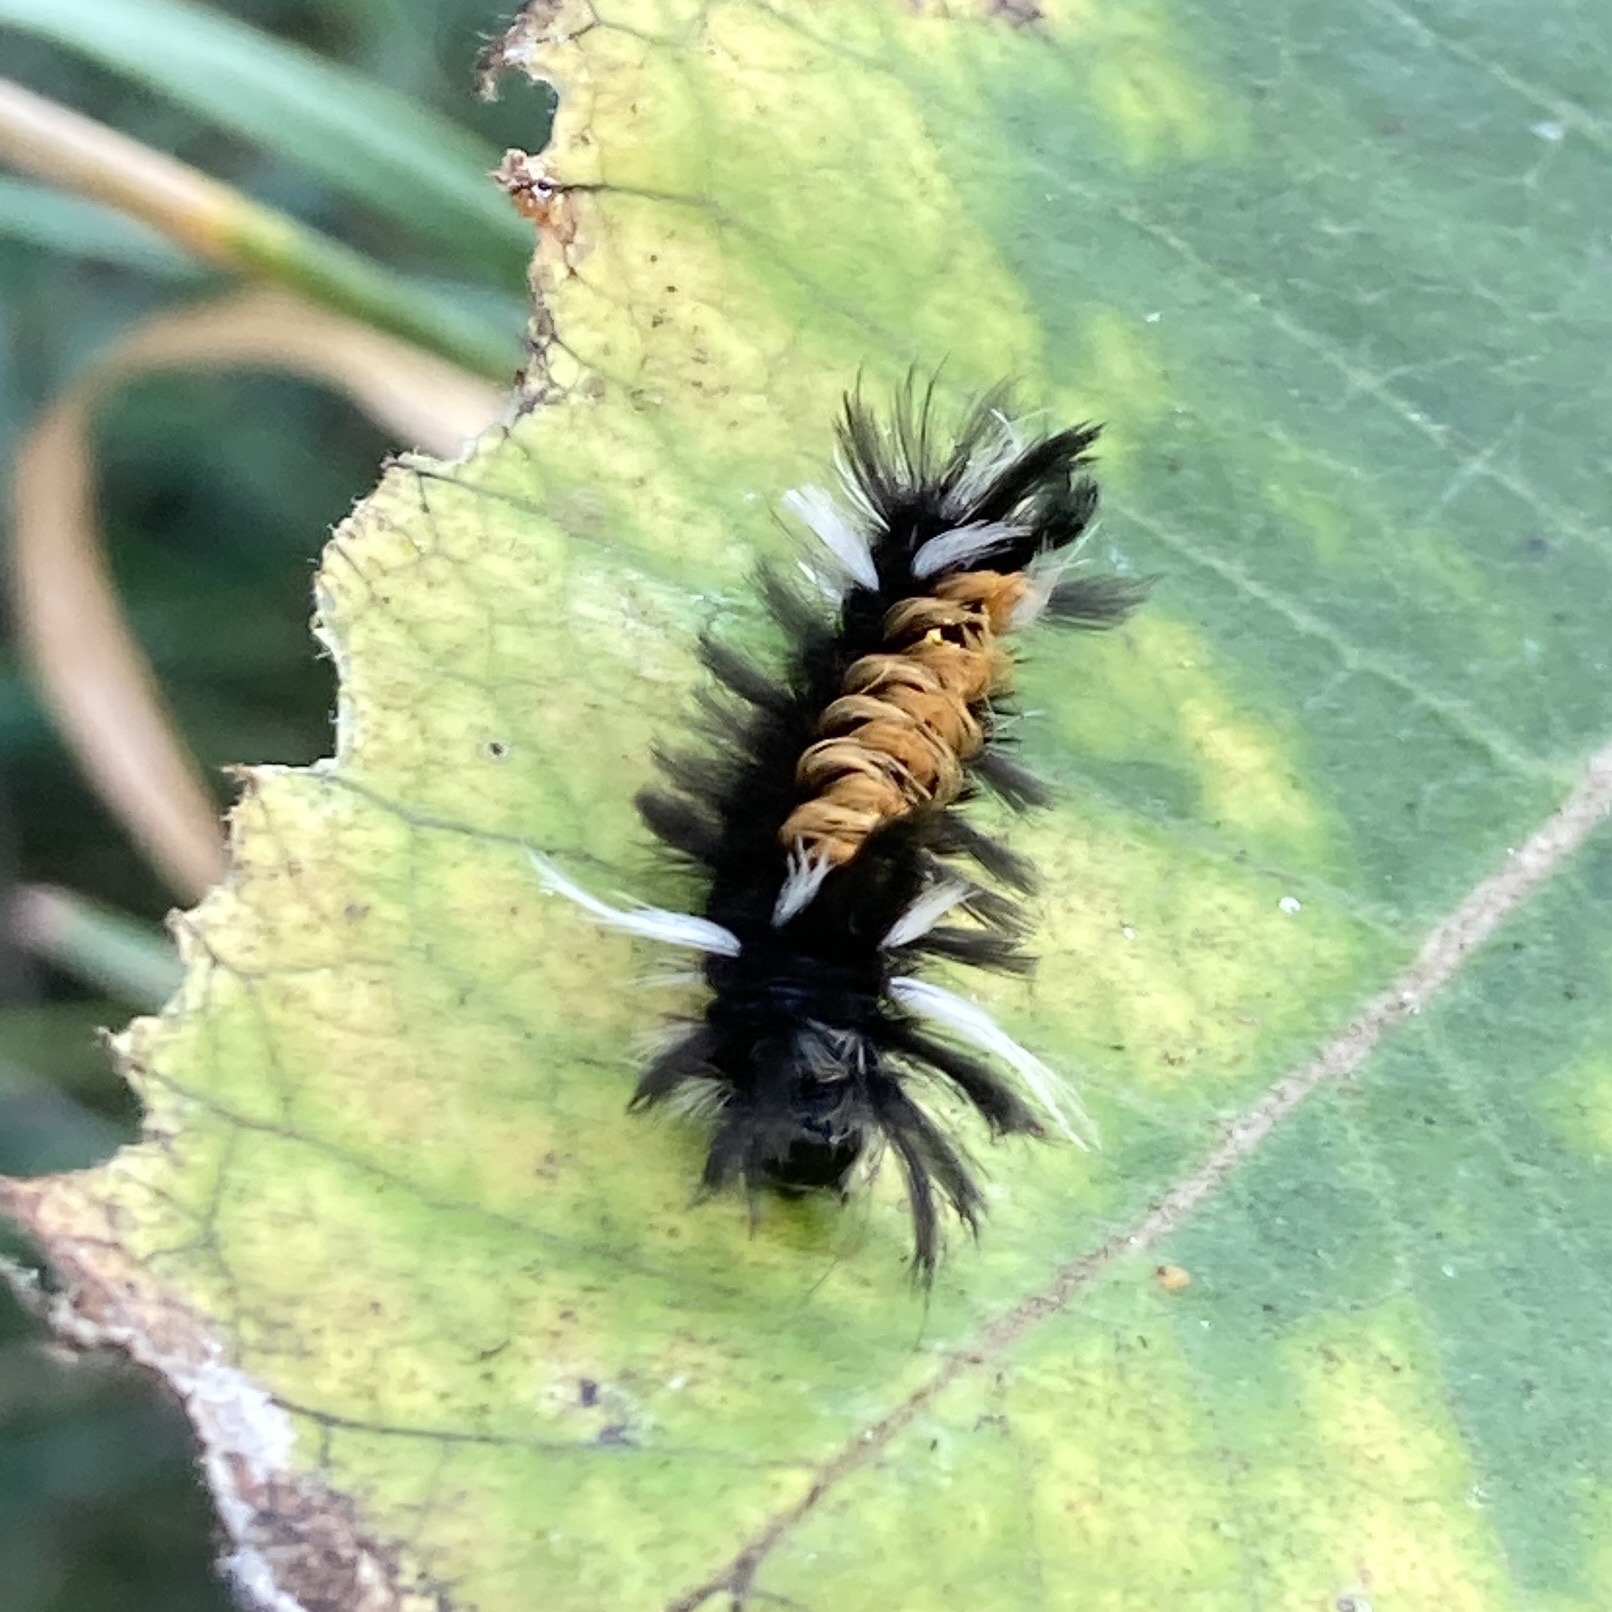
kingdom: Animalia
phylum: Arthropoda
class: Insecta
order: Lepidoptera
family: Erebidae
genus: Euchaetes
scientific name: Euchaetes egle
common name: Milkweed tussock moth
